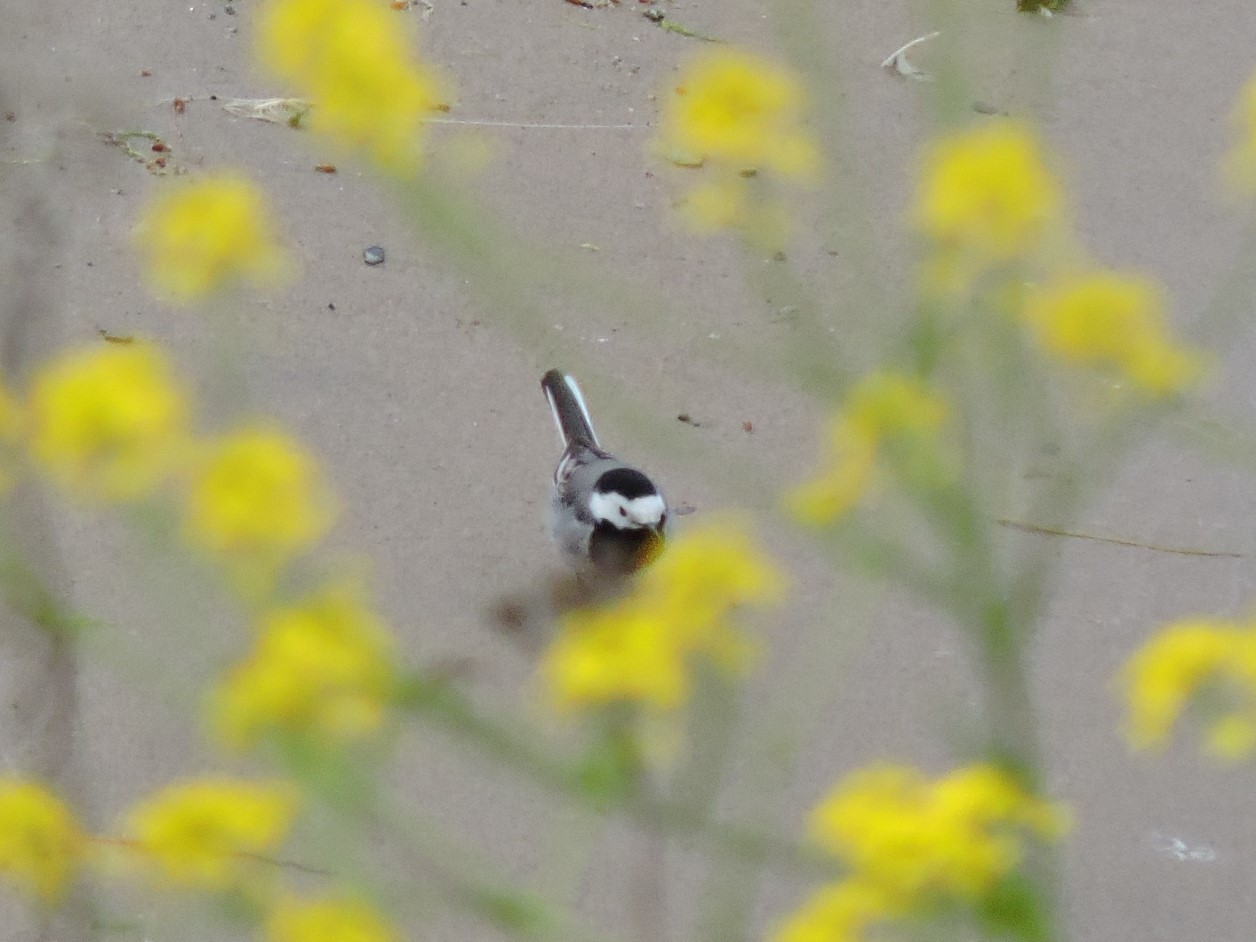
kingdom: Animalia
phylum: Chordata
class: Aves
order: Passeriformes
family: Motacillidae
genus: Motacilla
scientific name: Motacilla alba
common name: White wagtail
